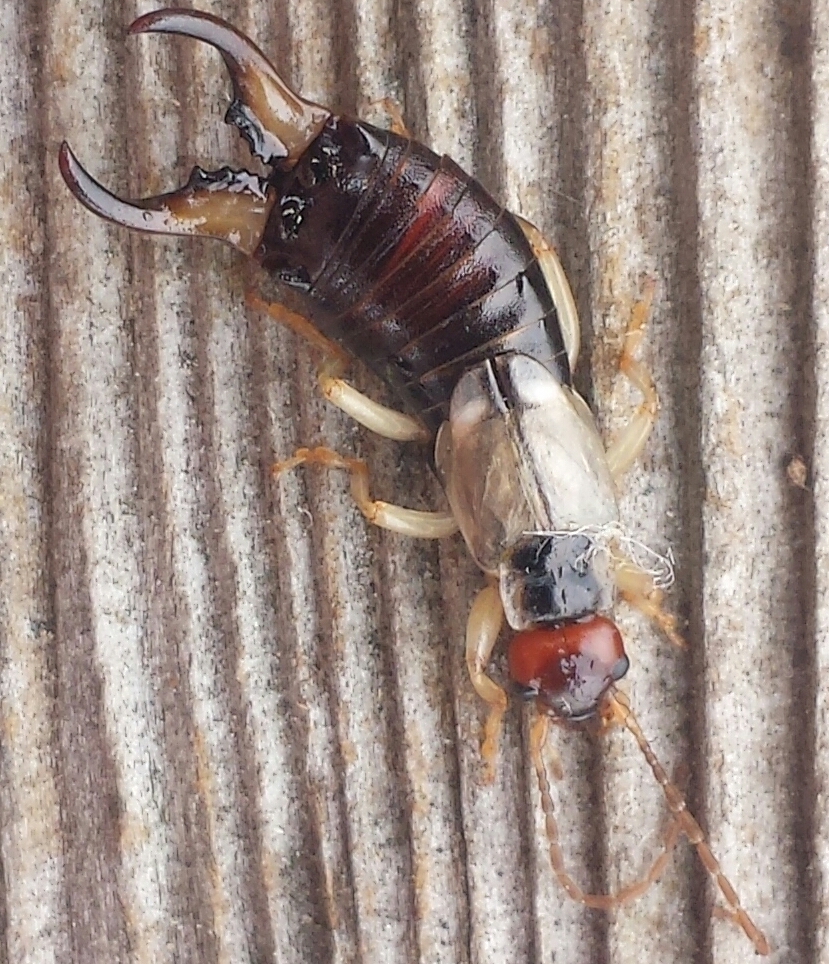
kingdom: Animalia
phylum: Arthropoda
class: Insecta
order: Dermaptera
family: Forficulidae
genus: Forficula
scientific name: Forficula dentata
